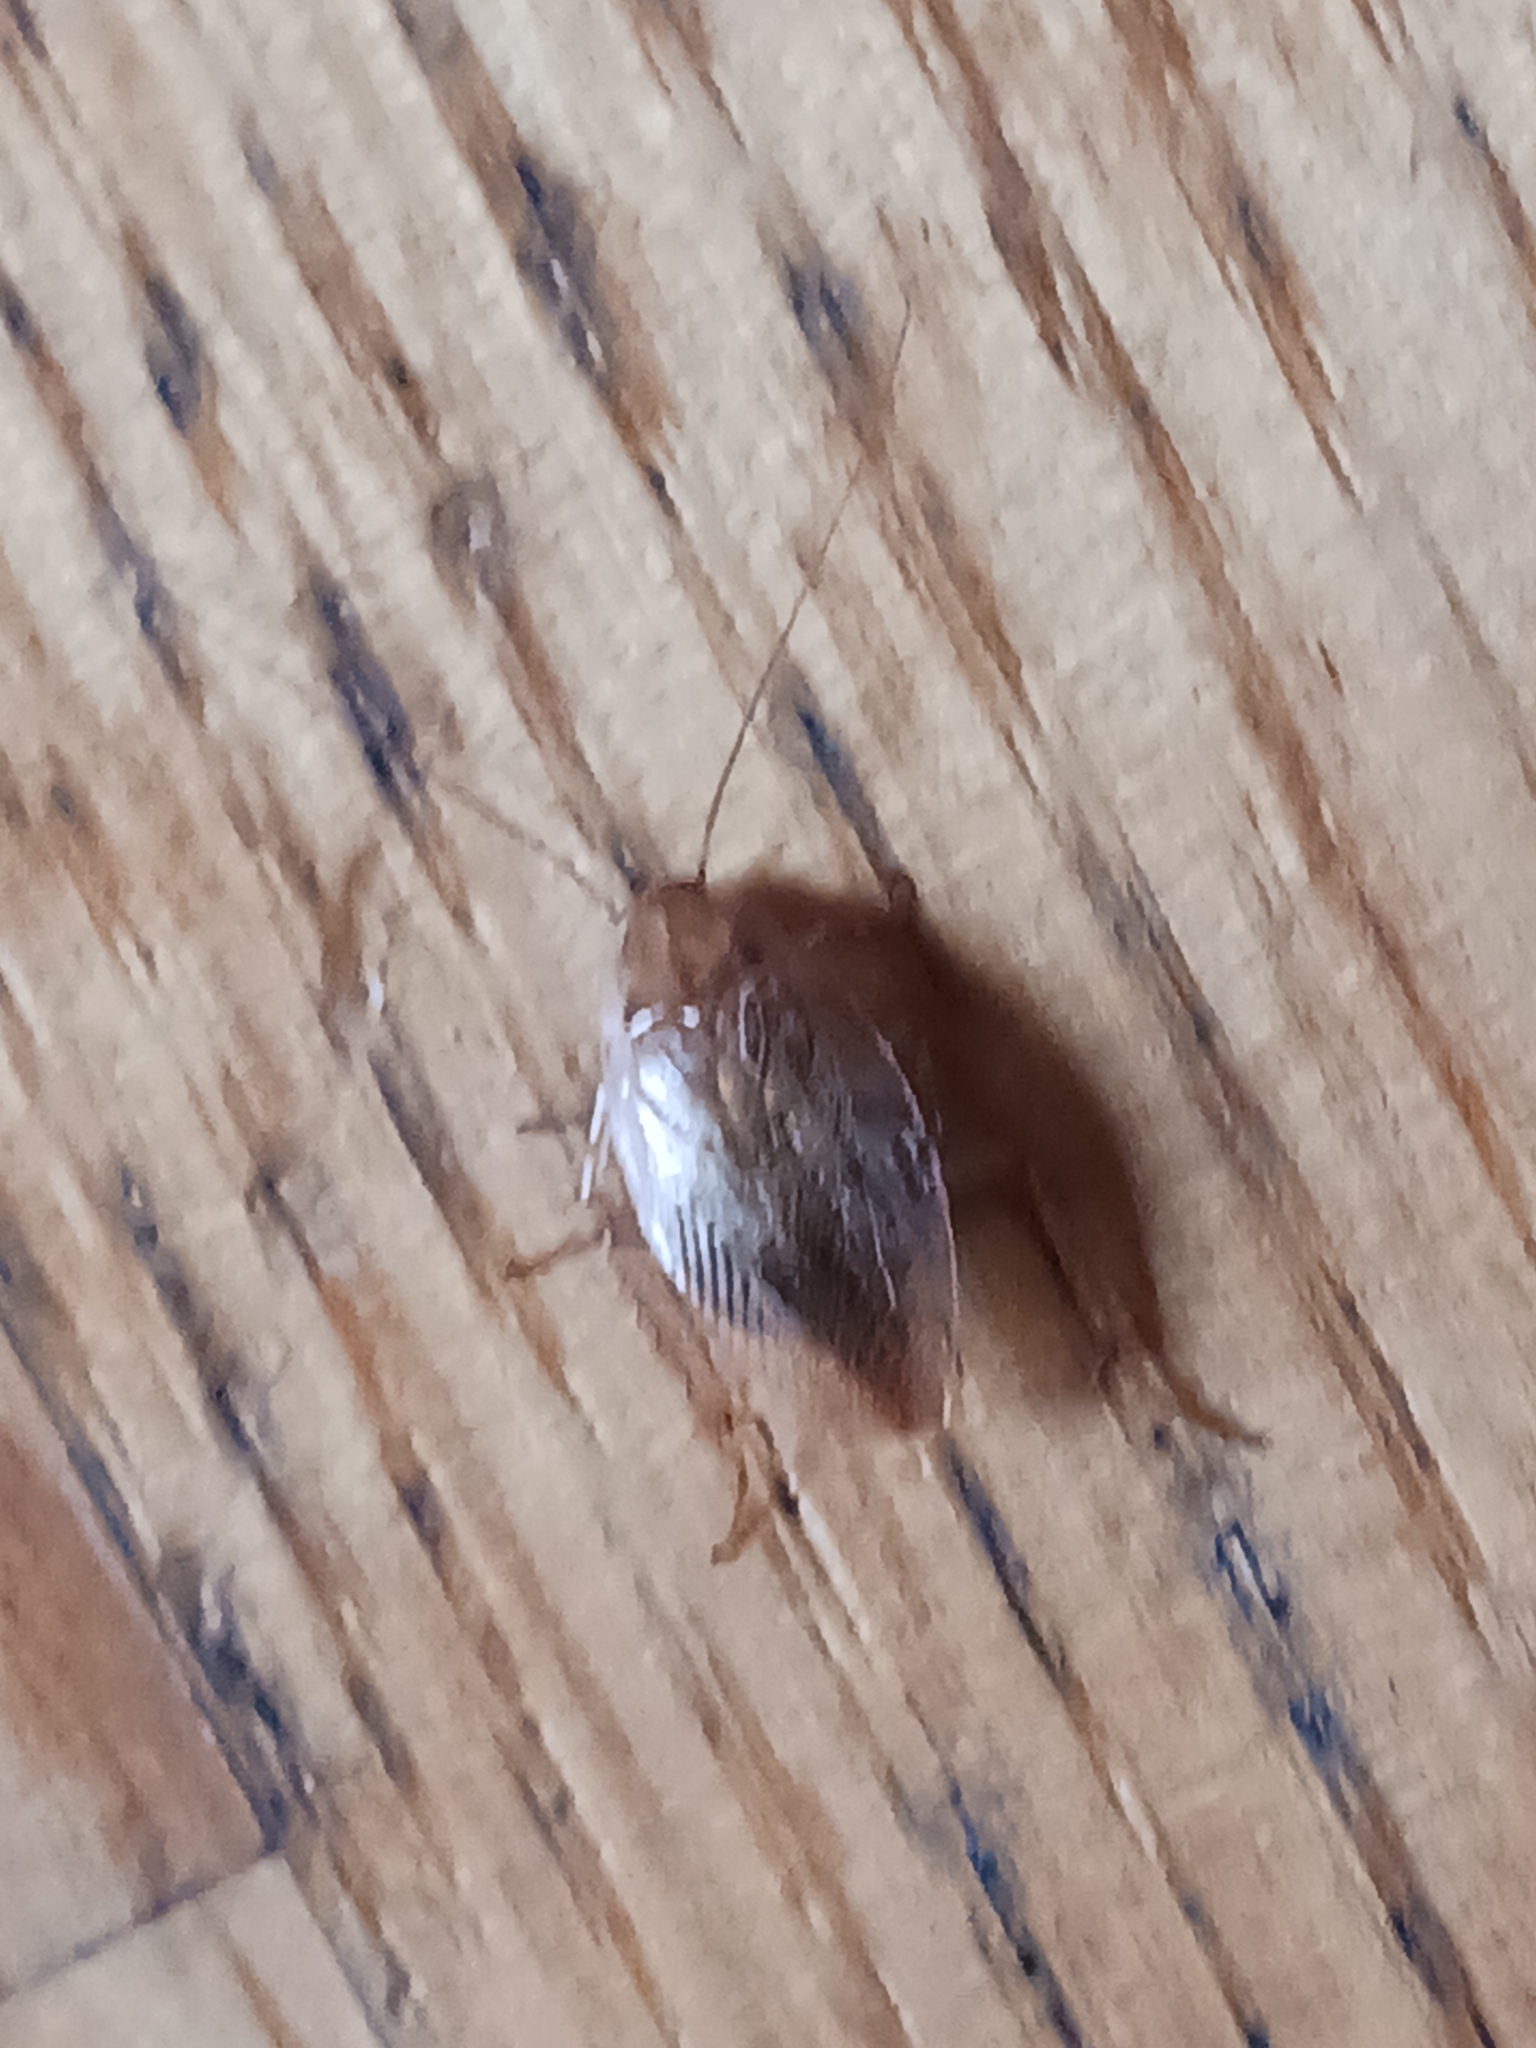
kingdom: Animalia
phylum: Arthropoda
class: Insecta
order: Blattodea
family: Ectobiidae
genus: Ectobius
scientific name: Ectobius vittiventris
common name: Garden cockroach
